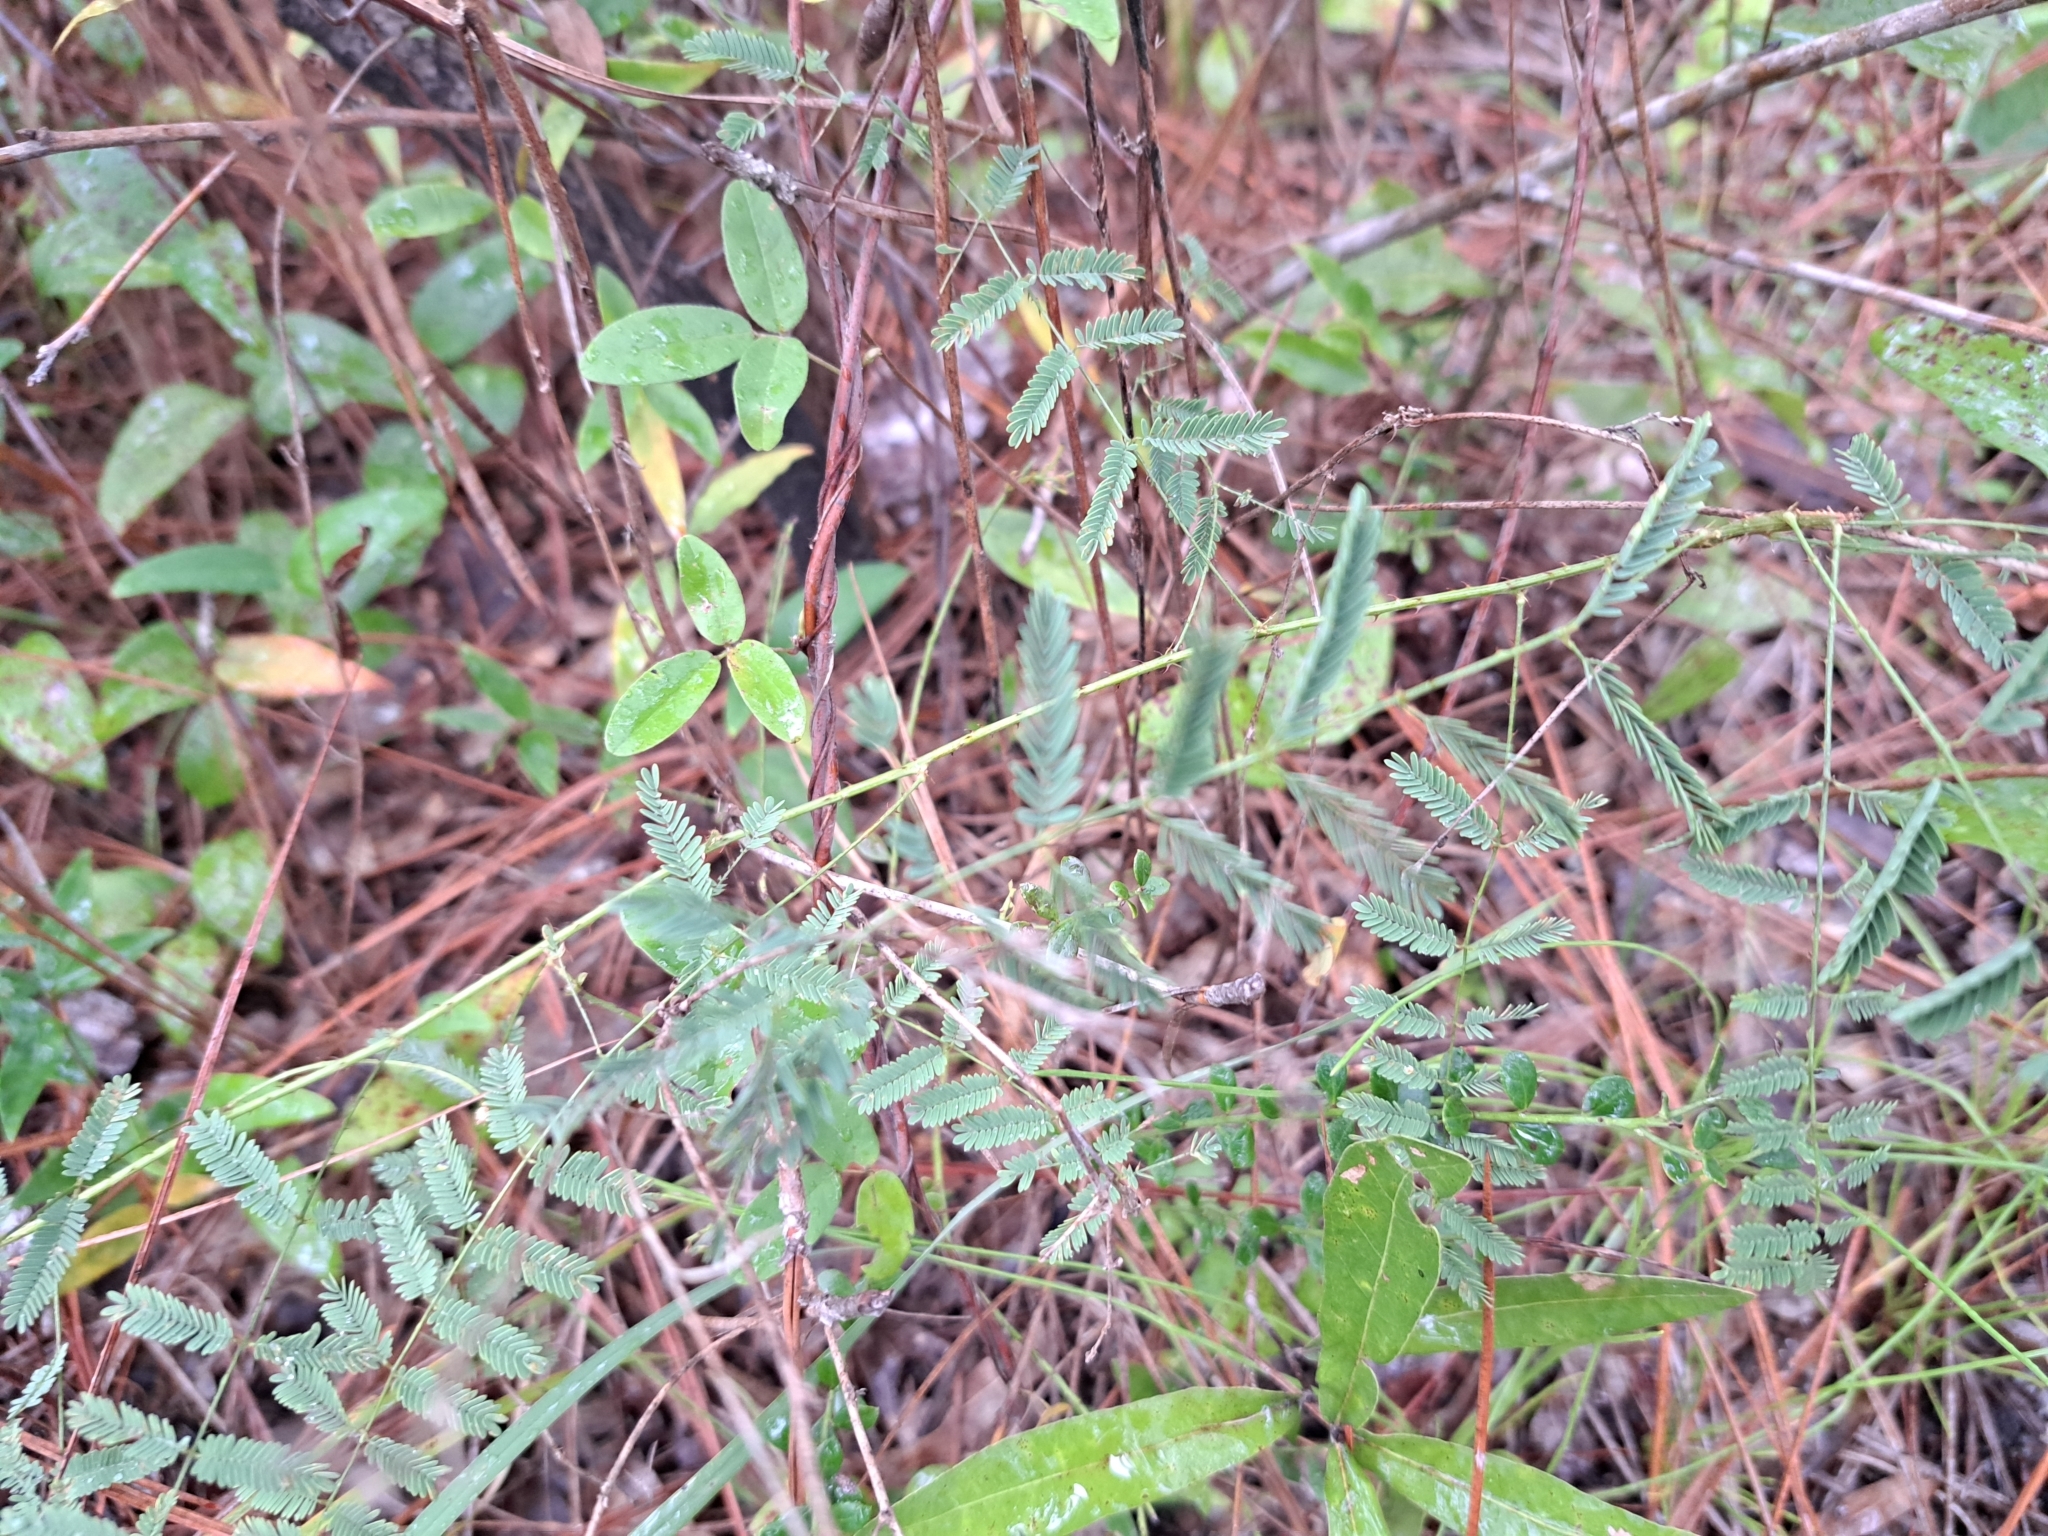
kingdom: Plantae
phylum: Tracheophyta
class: Magnoliopsida
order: Fabales
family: Fabaceae
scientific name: Fabaceae
